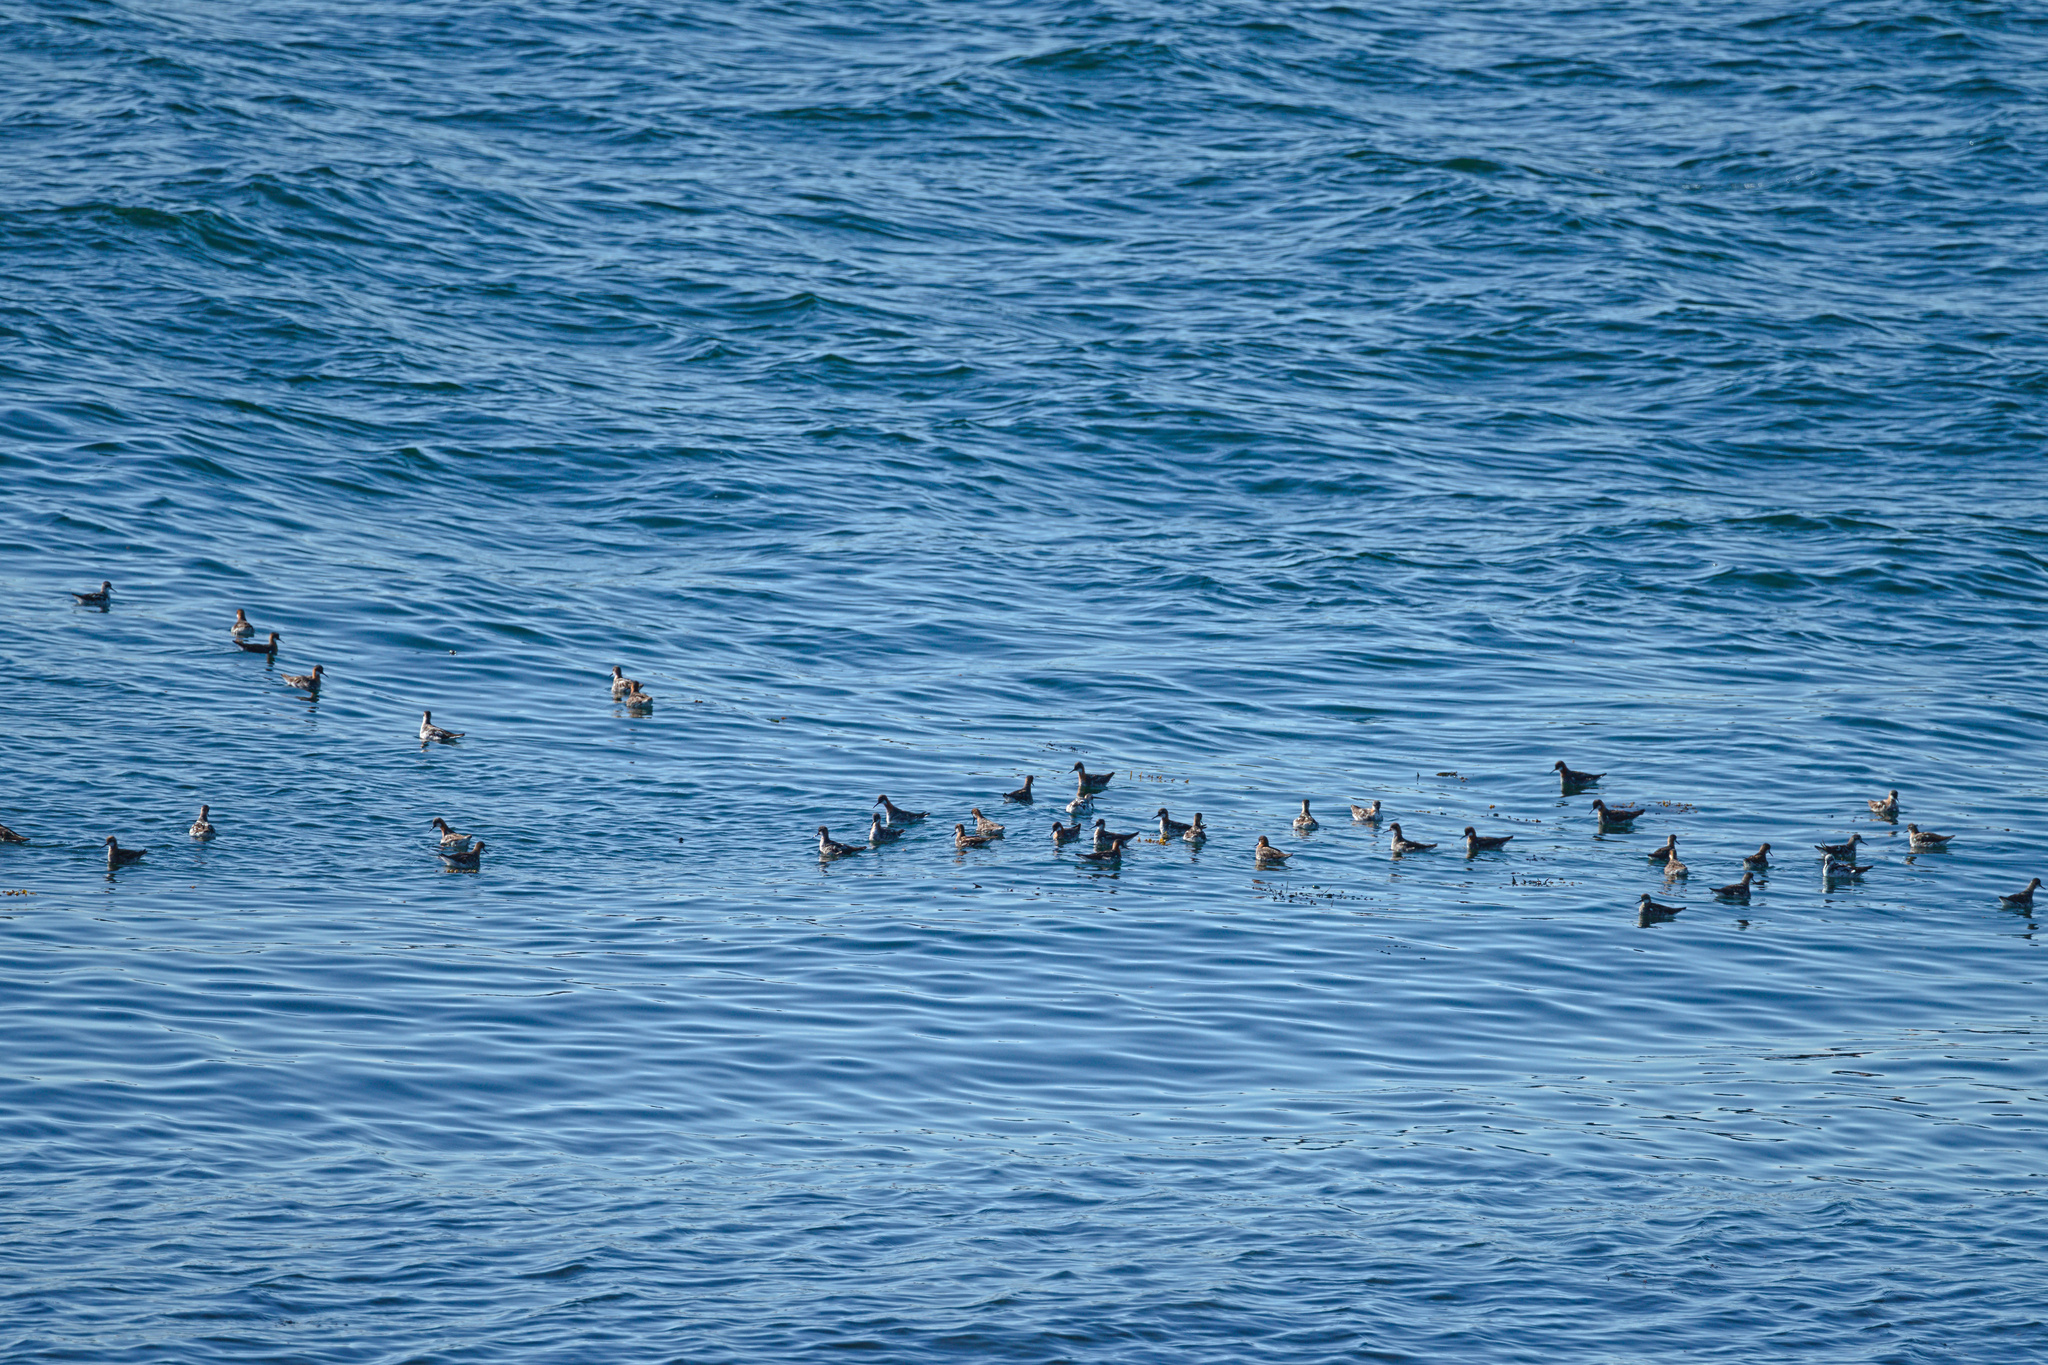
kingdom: Animalia
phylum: Chordata
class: Aves
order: Charadriiformes
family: Scolopacidae
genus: Phalaropus
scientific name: Phalaropus lobatus
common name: Red-necked phalarope
